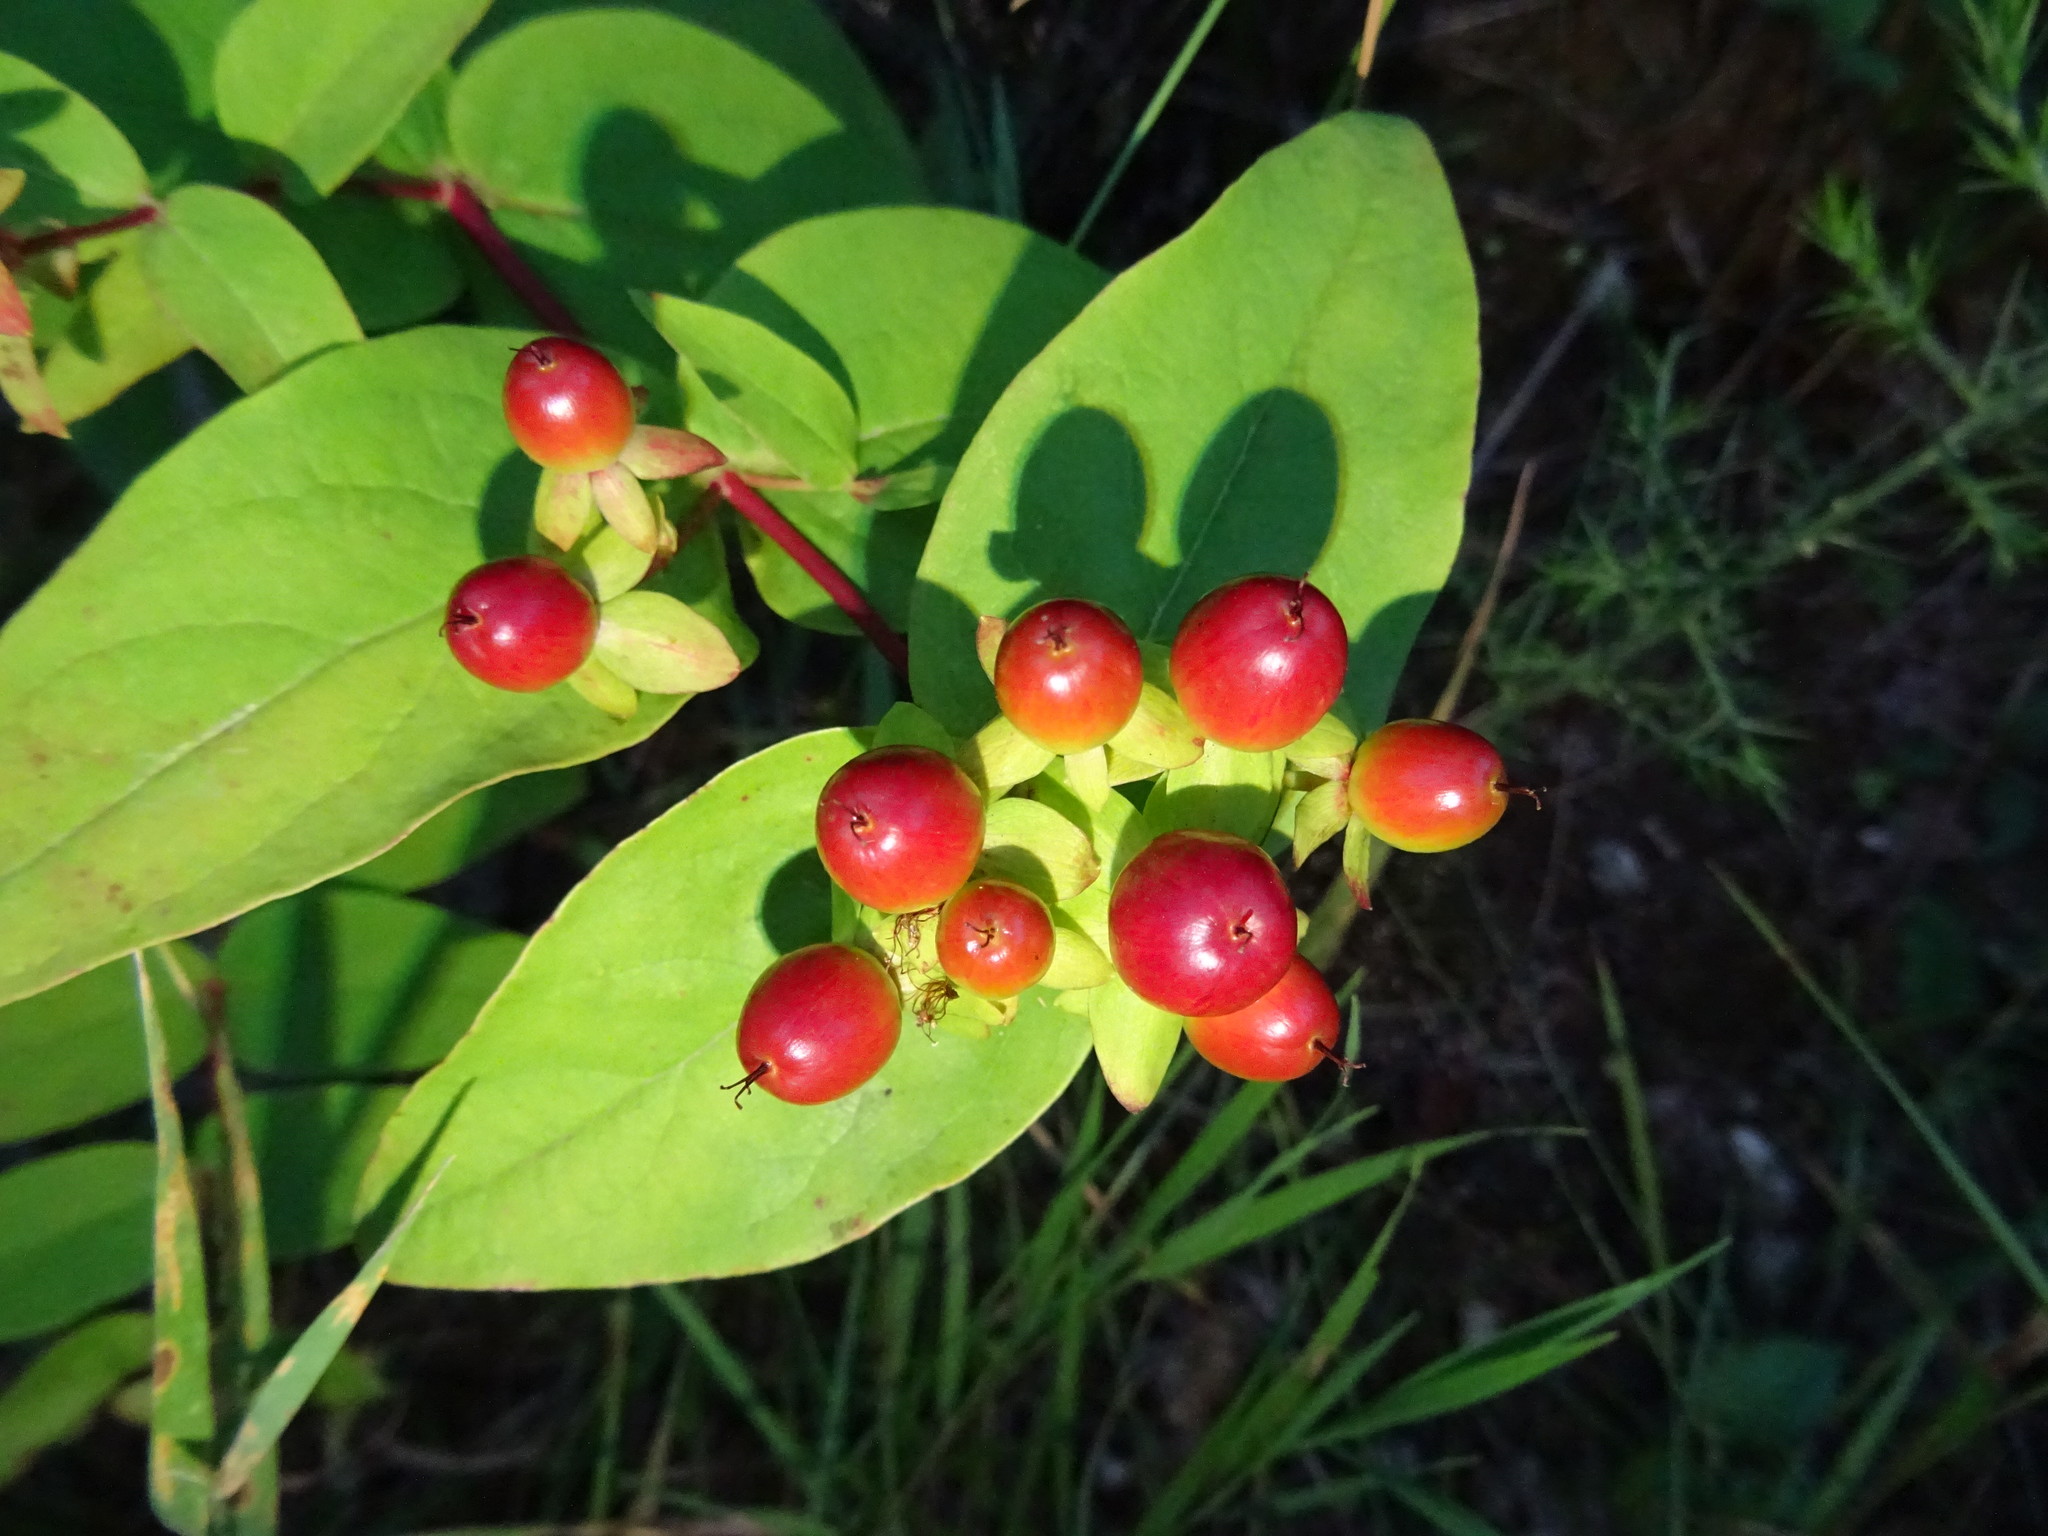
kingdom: Plantae
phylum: Tracheophyta
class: Magnoliopsida
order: Malpighiales
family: Hypericaceae
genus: Hypericum
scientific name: Hypericum androsaemum
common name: Sweet-amber
